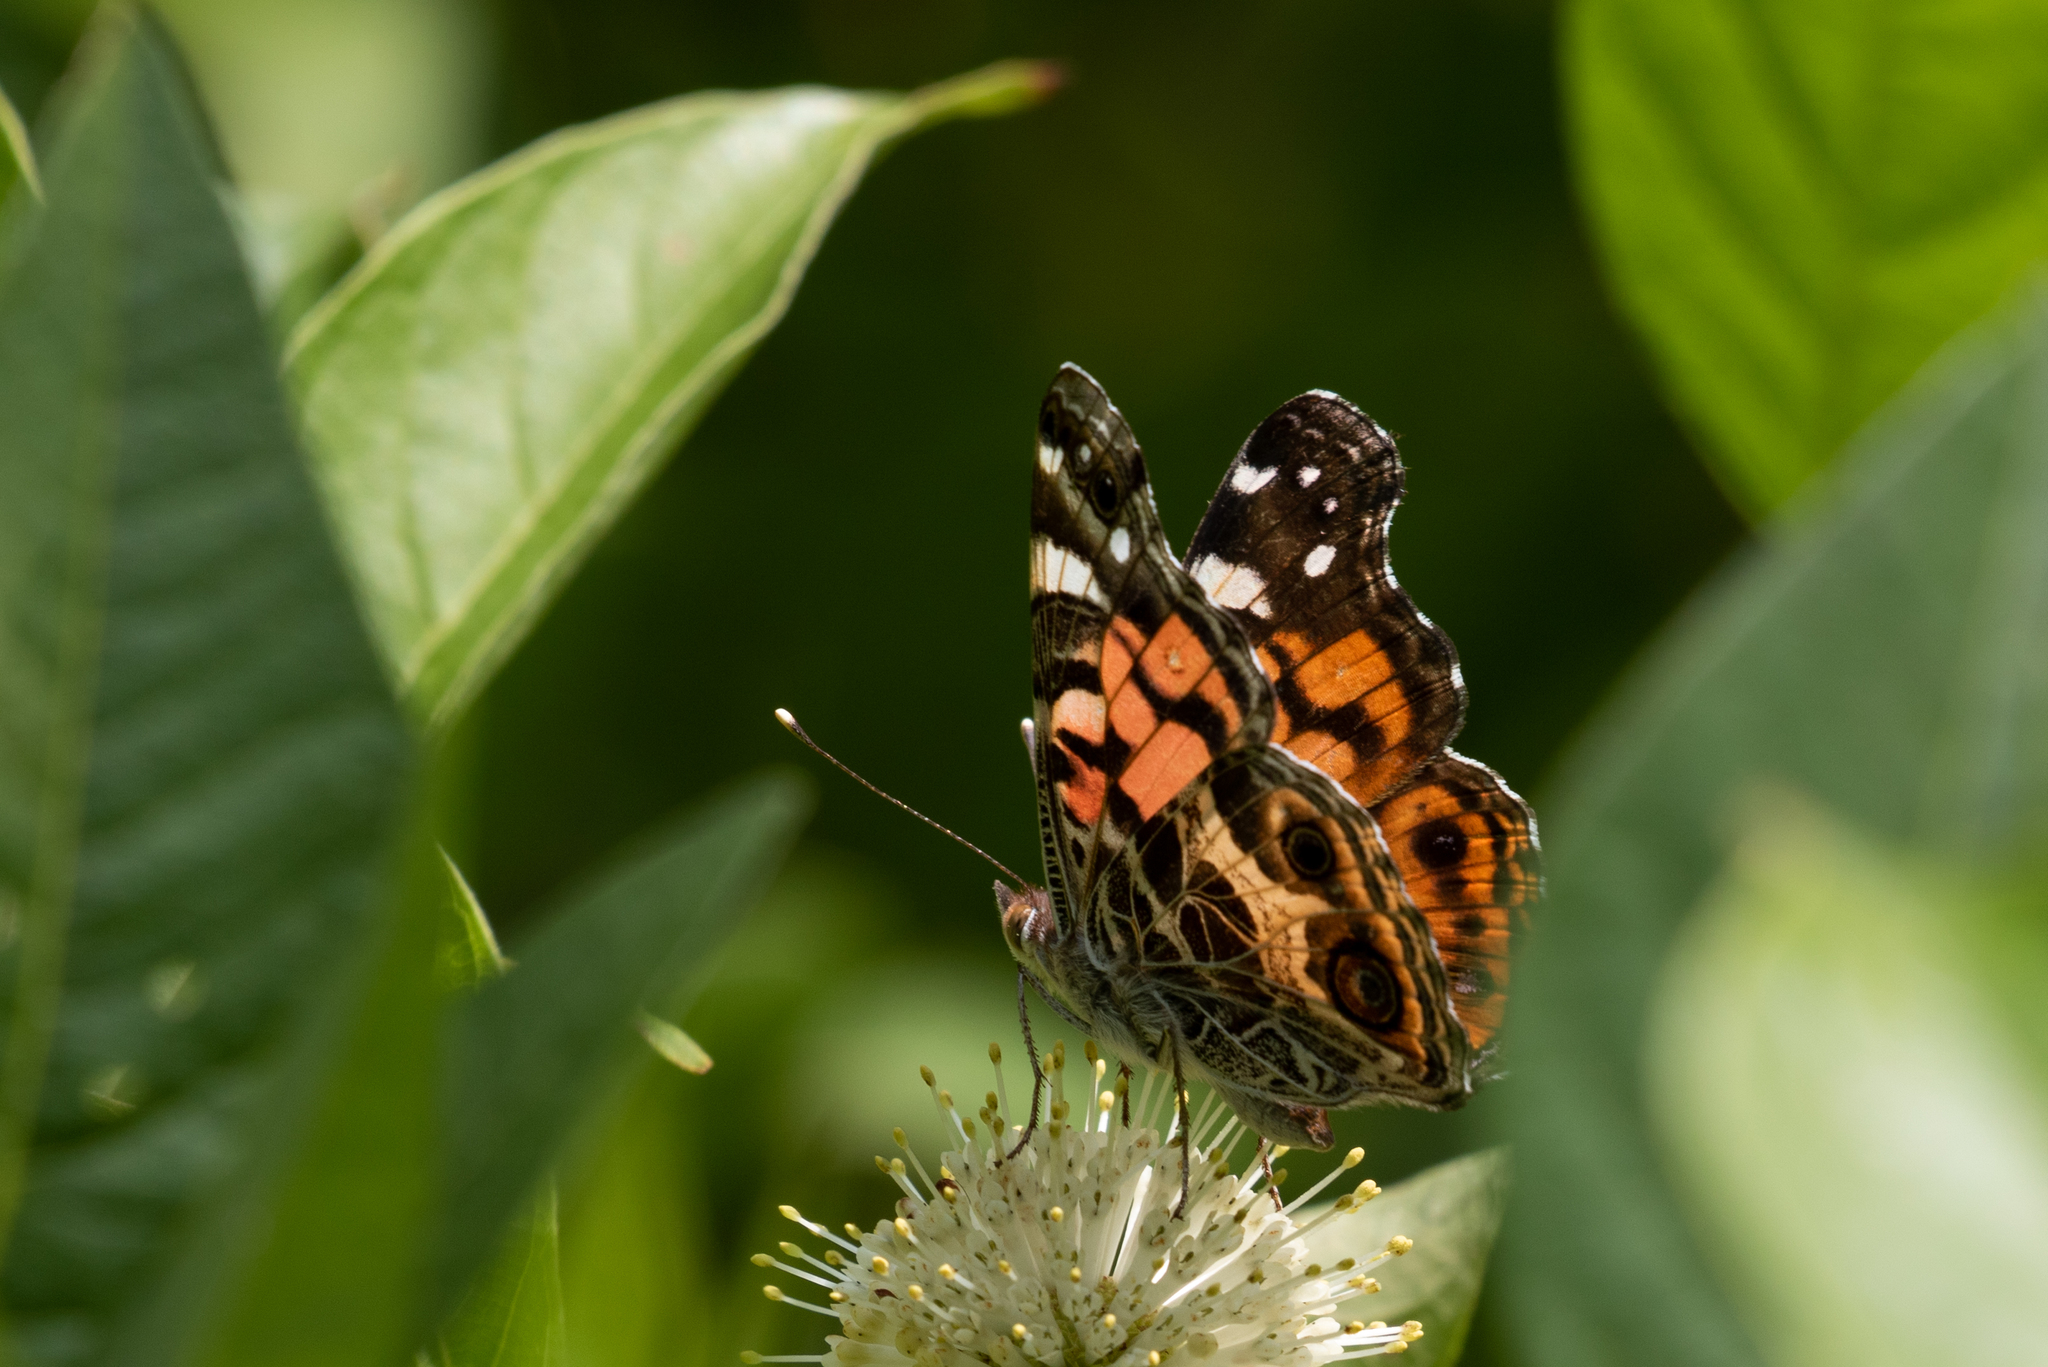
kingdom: Animalia
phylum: Arthropoda
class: Insecta
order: Lepidoptera
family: Nymphalidae
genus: Vanessa
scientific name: Vanessa virginiensis
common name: American lady
